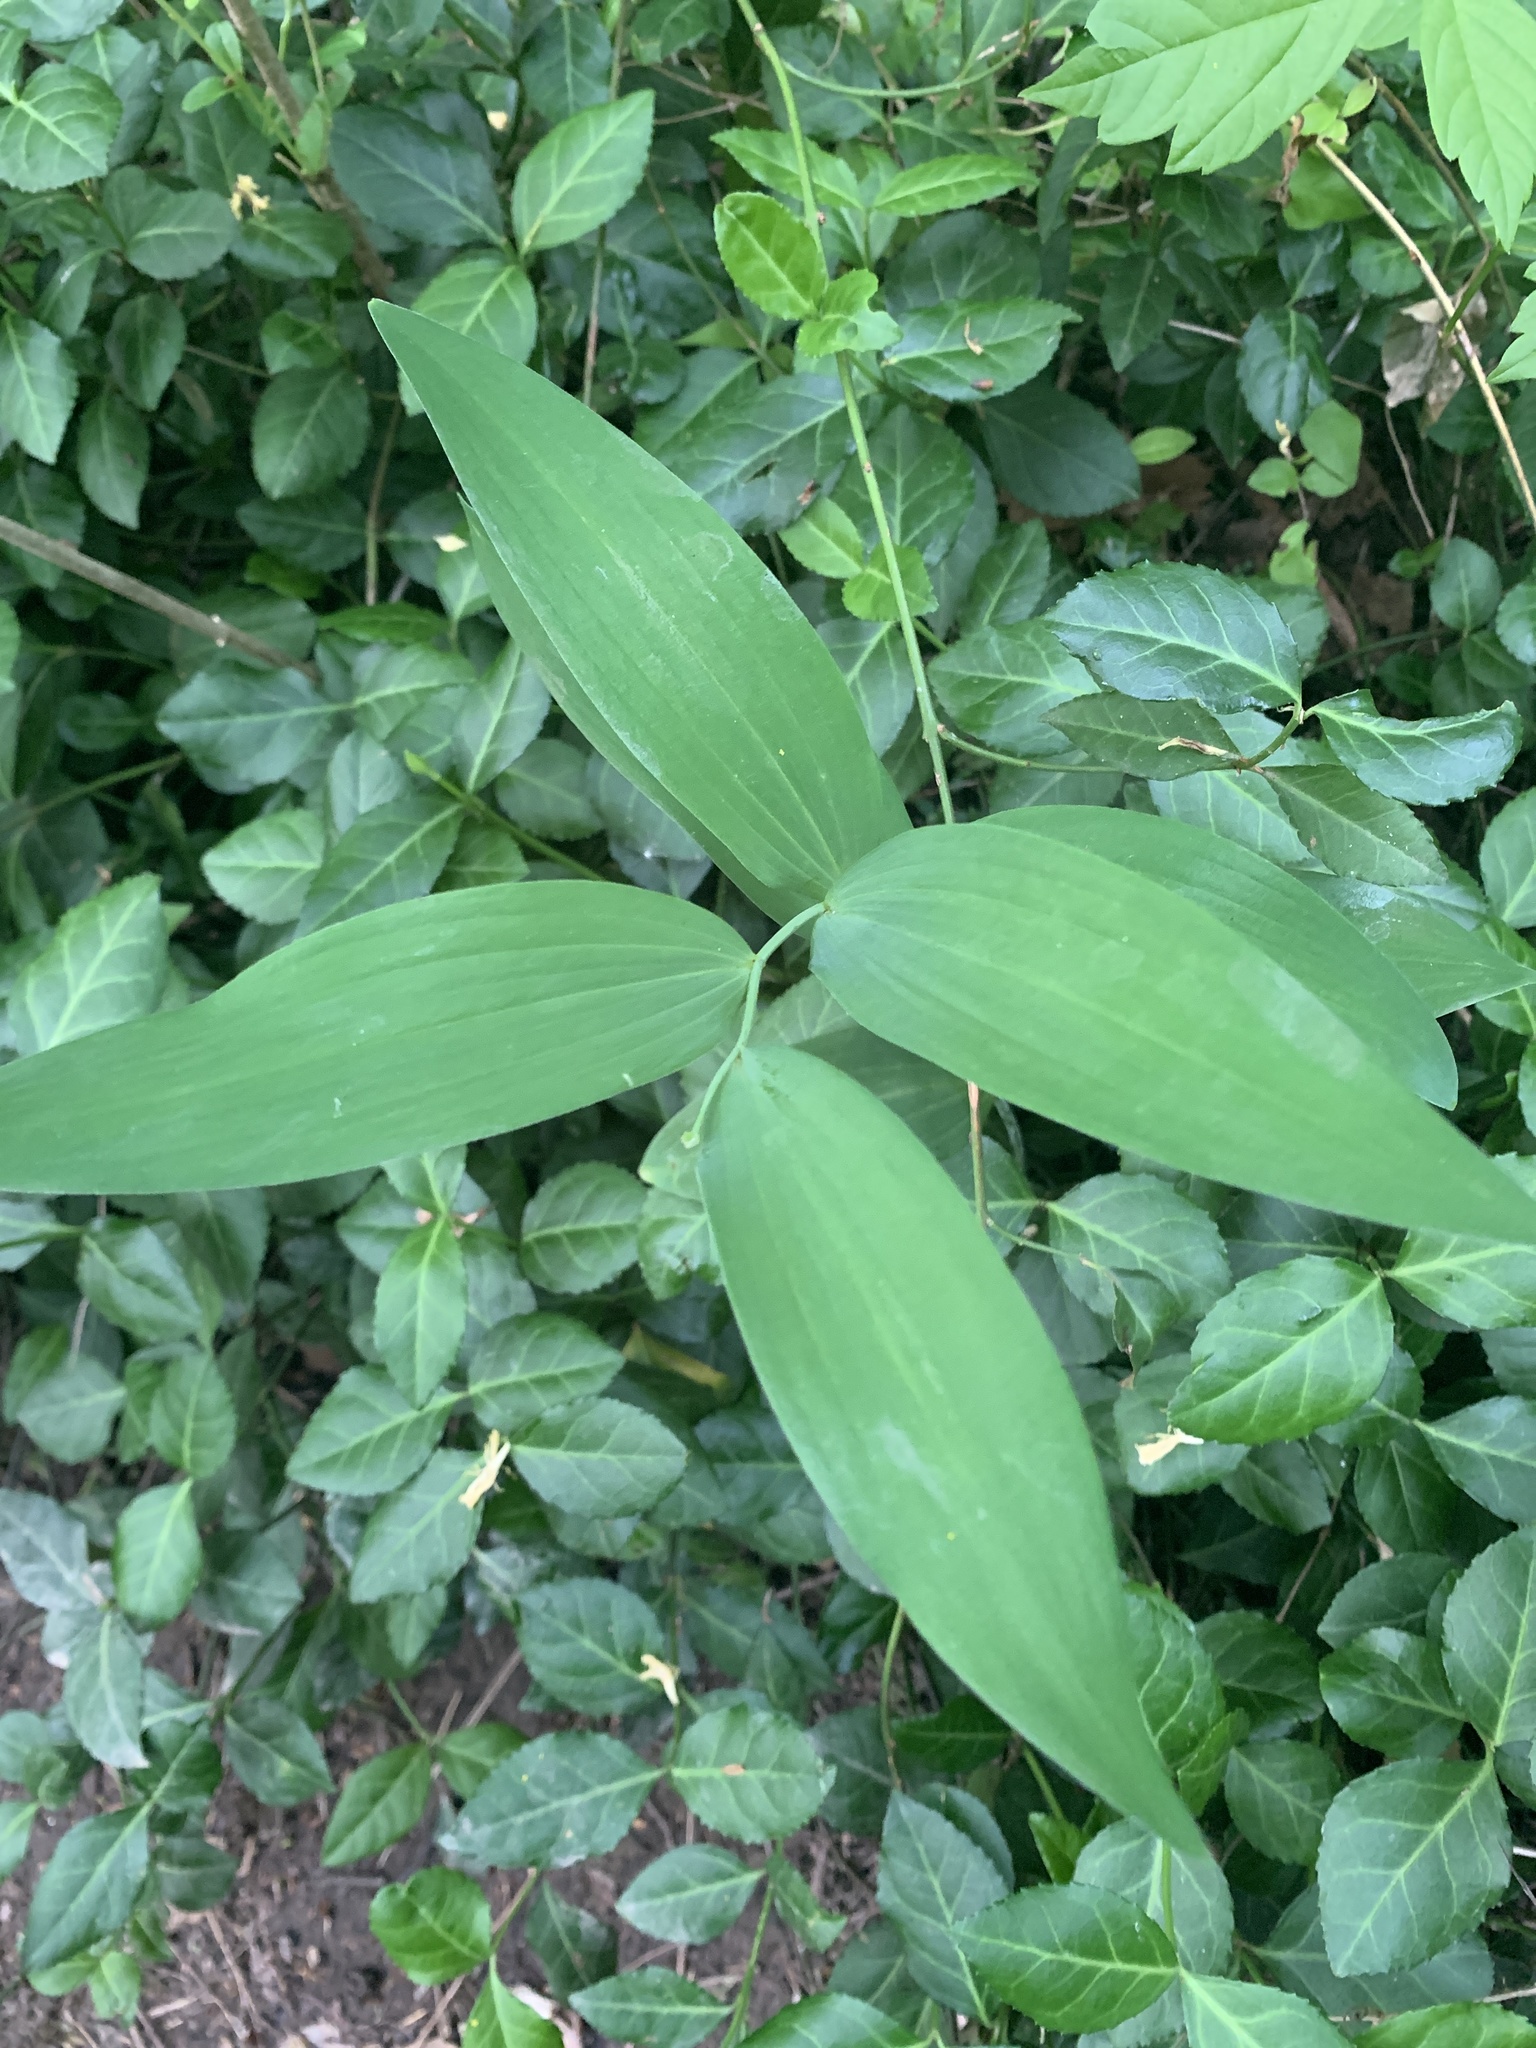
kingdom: Plantae
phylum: Tracheophyta
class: Liliopsida
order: Asparagales
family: Asparagaceae
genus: Polygonatum
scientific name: Polygonatum biflorum
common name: American solomon's-seal
